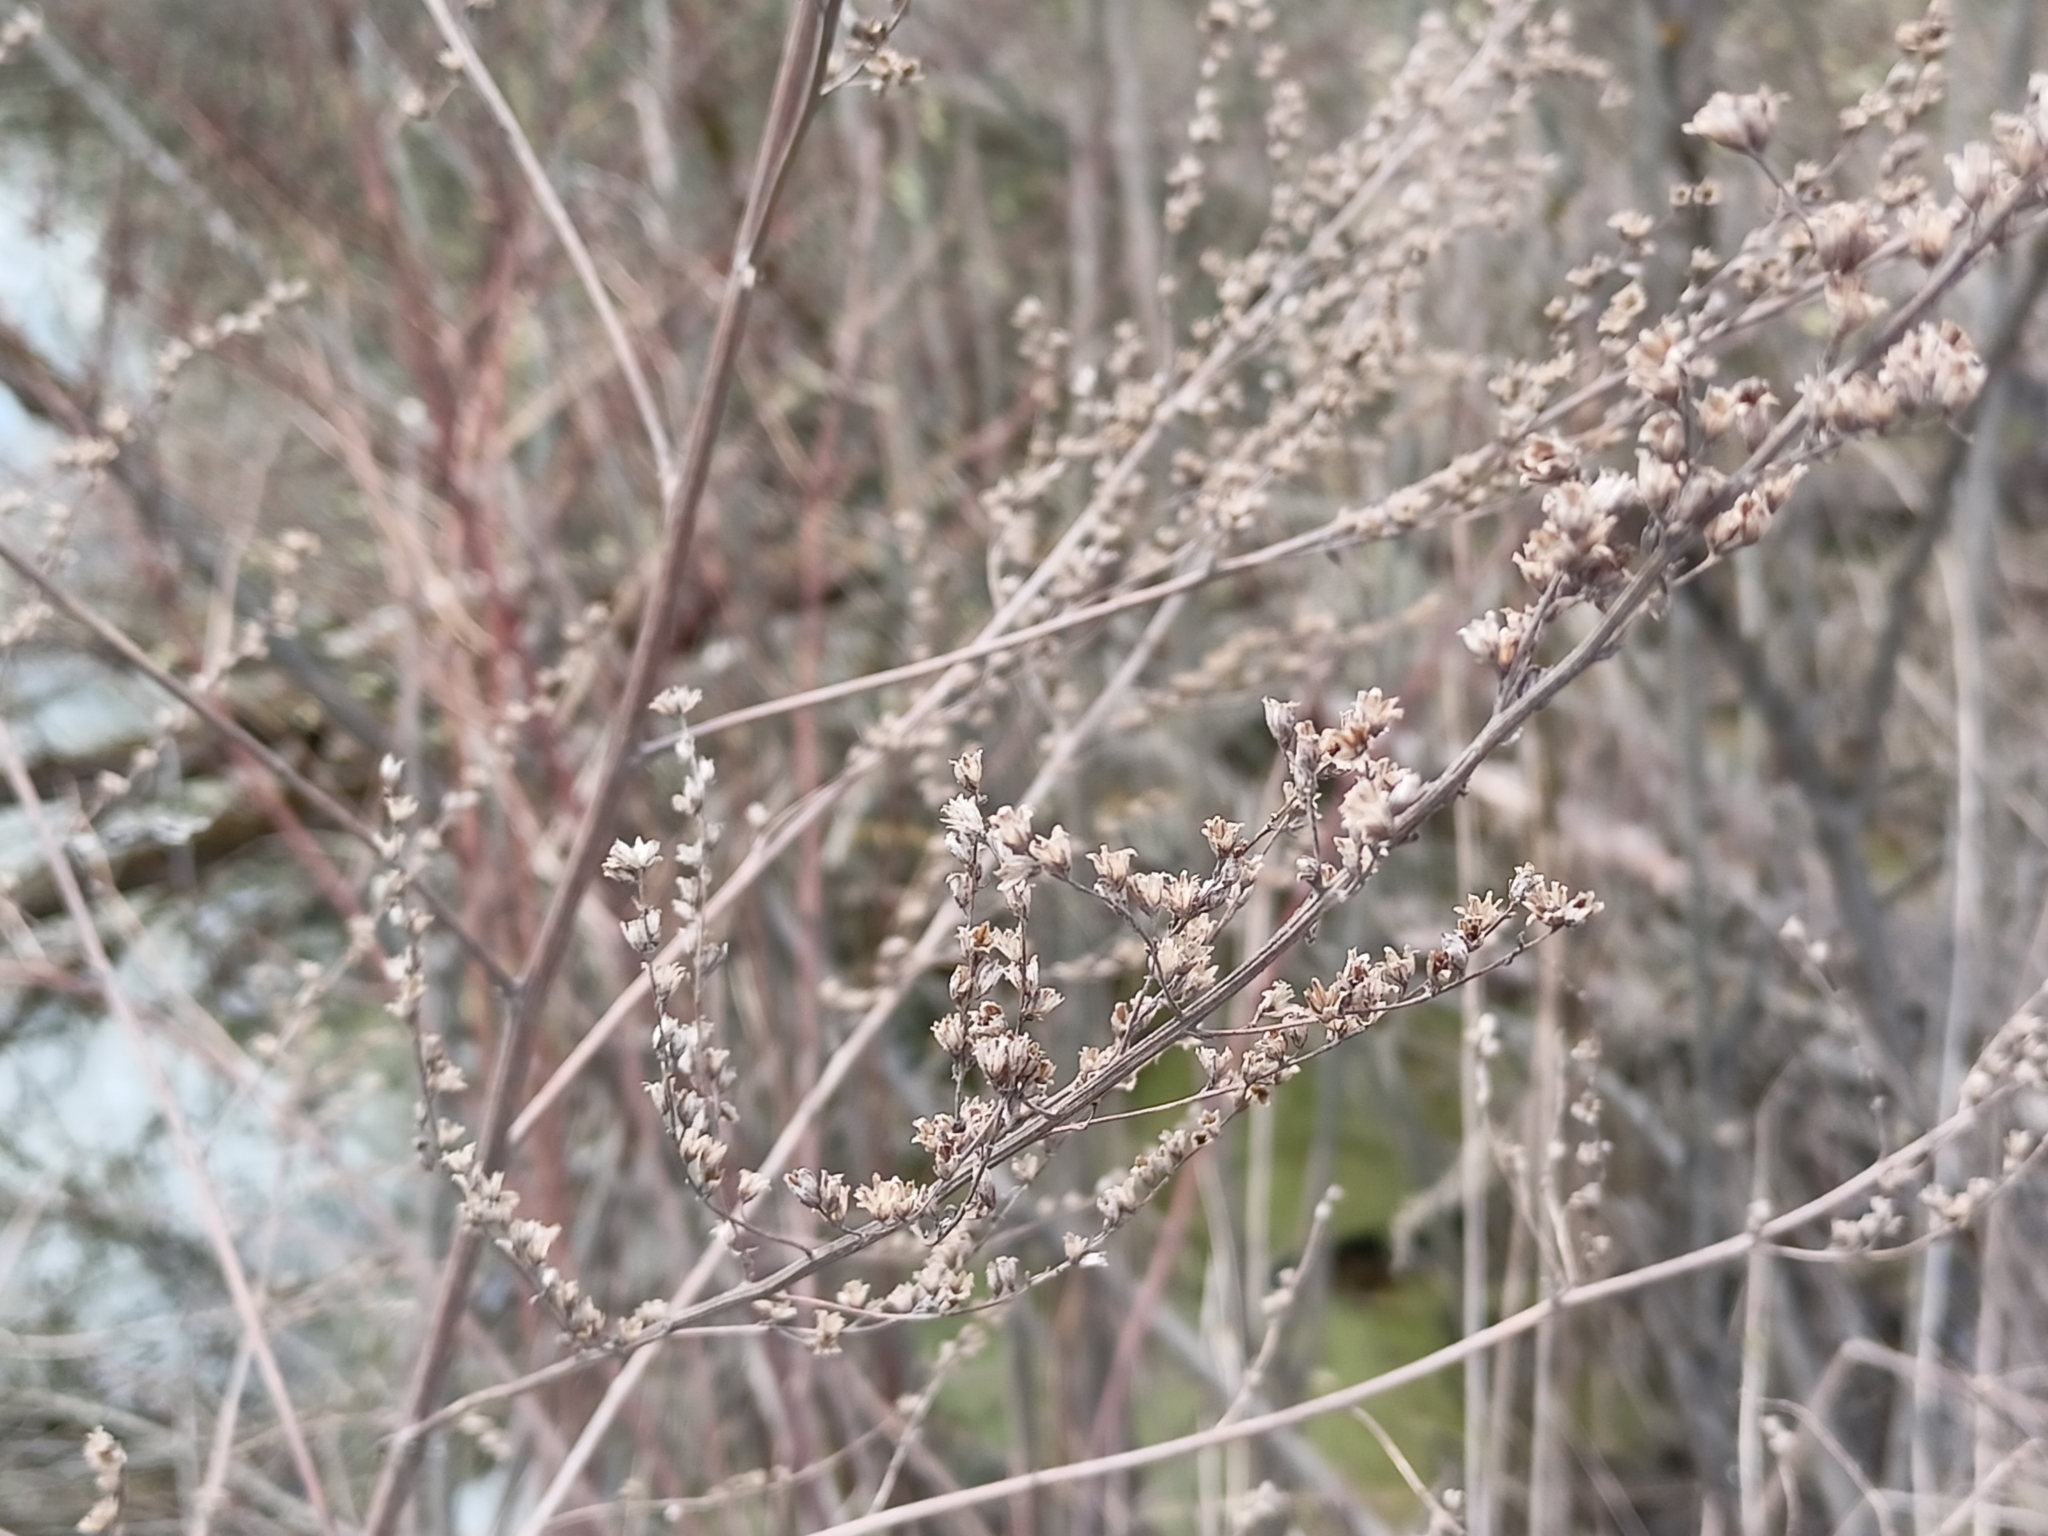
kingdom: Plantae
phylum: Tracheophyta
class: Magnoliopsida
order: Asterales
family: Asteraceae
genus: Artemisia
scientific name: Artemisia vulgaris
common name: Mugwort
